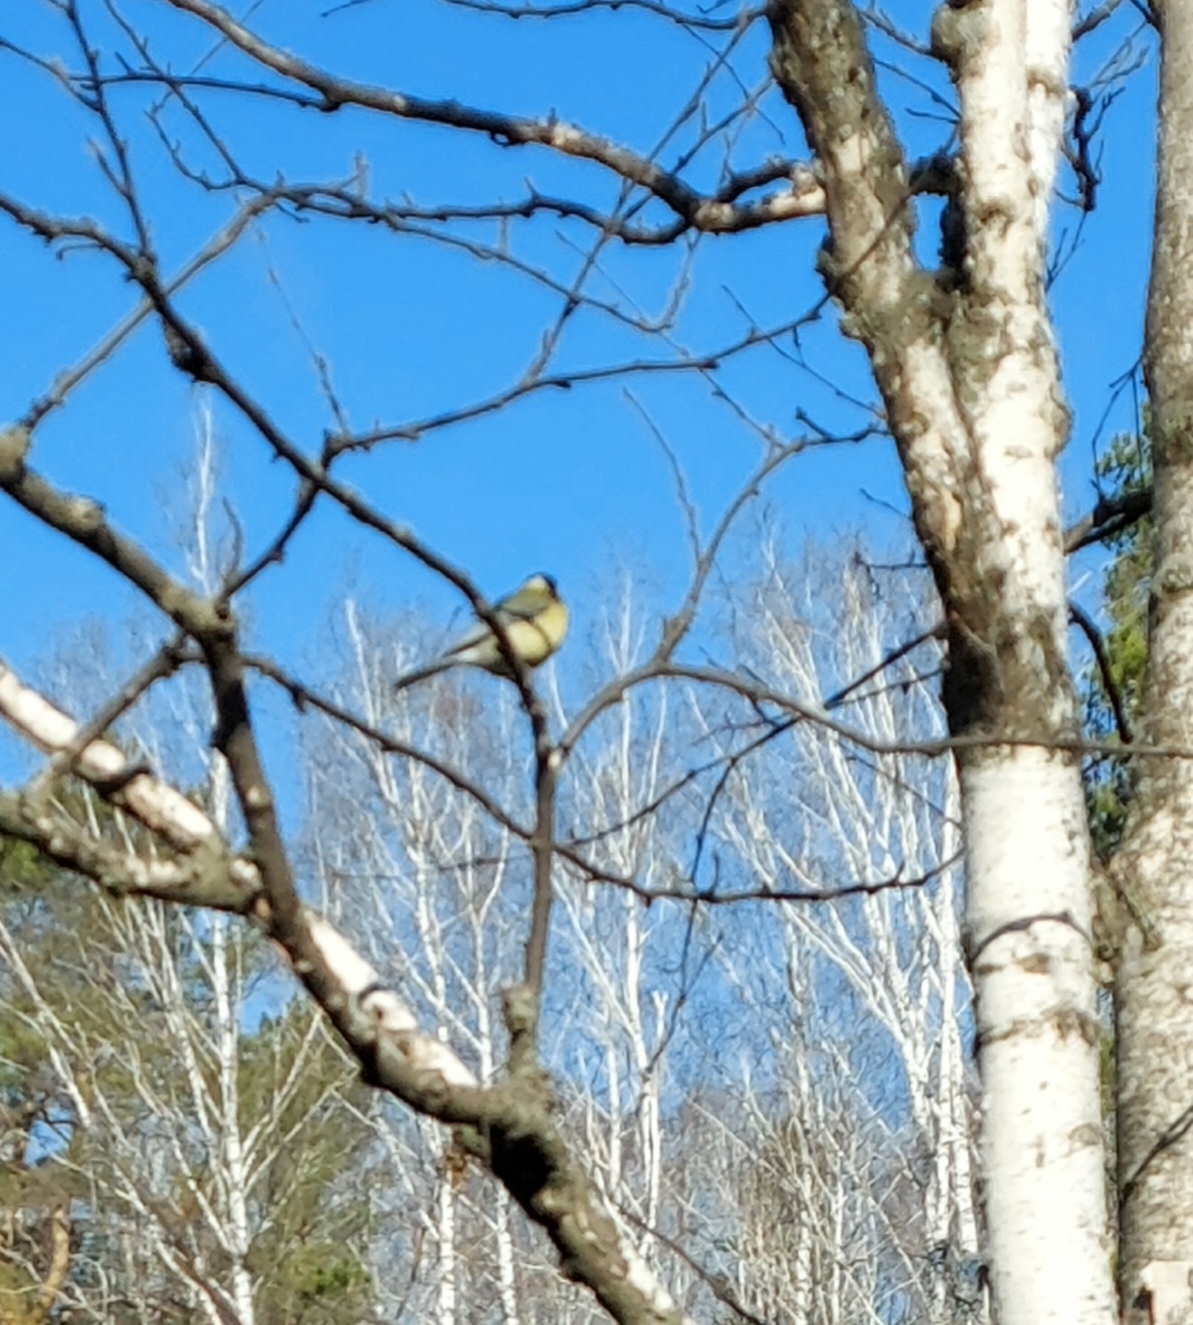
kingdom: Animalia
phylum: Chordata
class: Aves
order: Passeriformes
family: Paridae
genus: Parus
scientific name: Parus major
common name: Great tit
